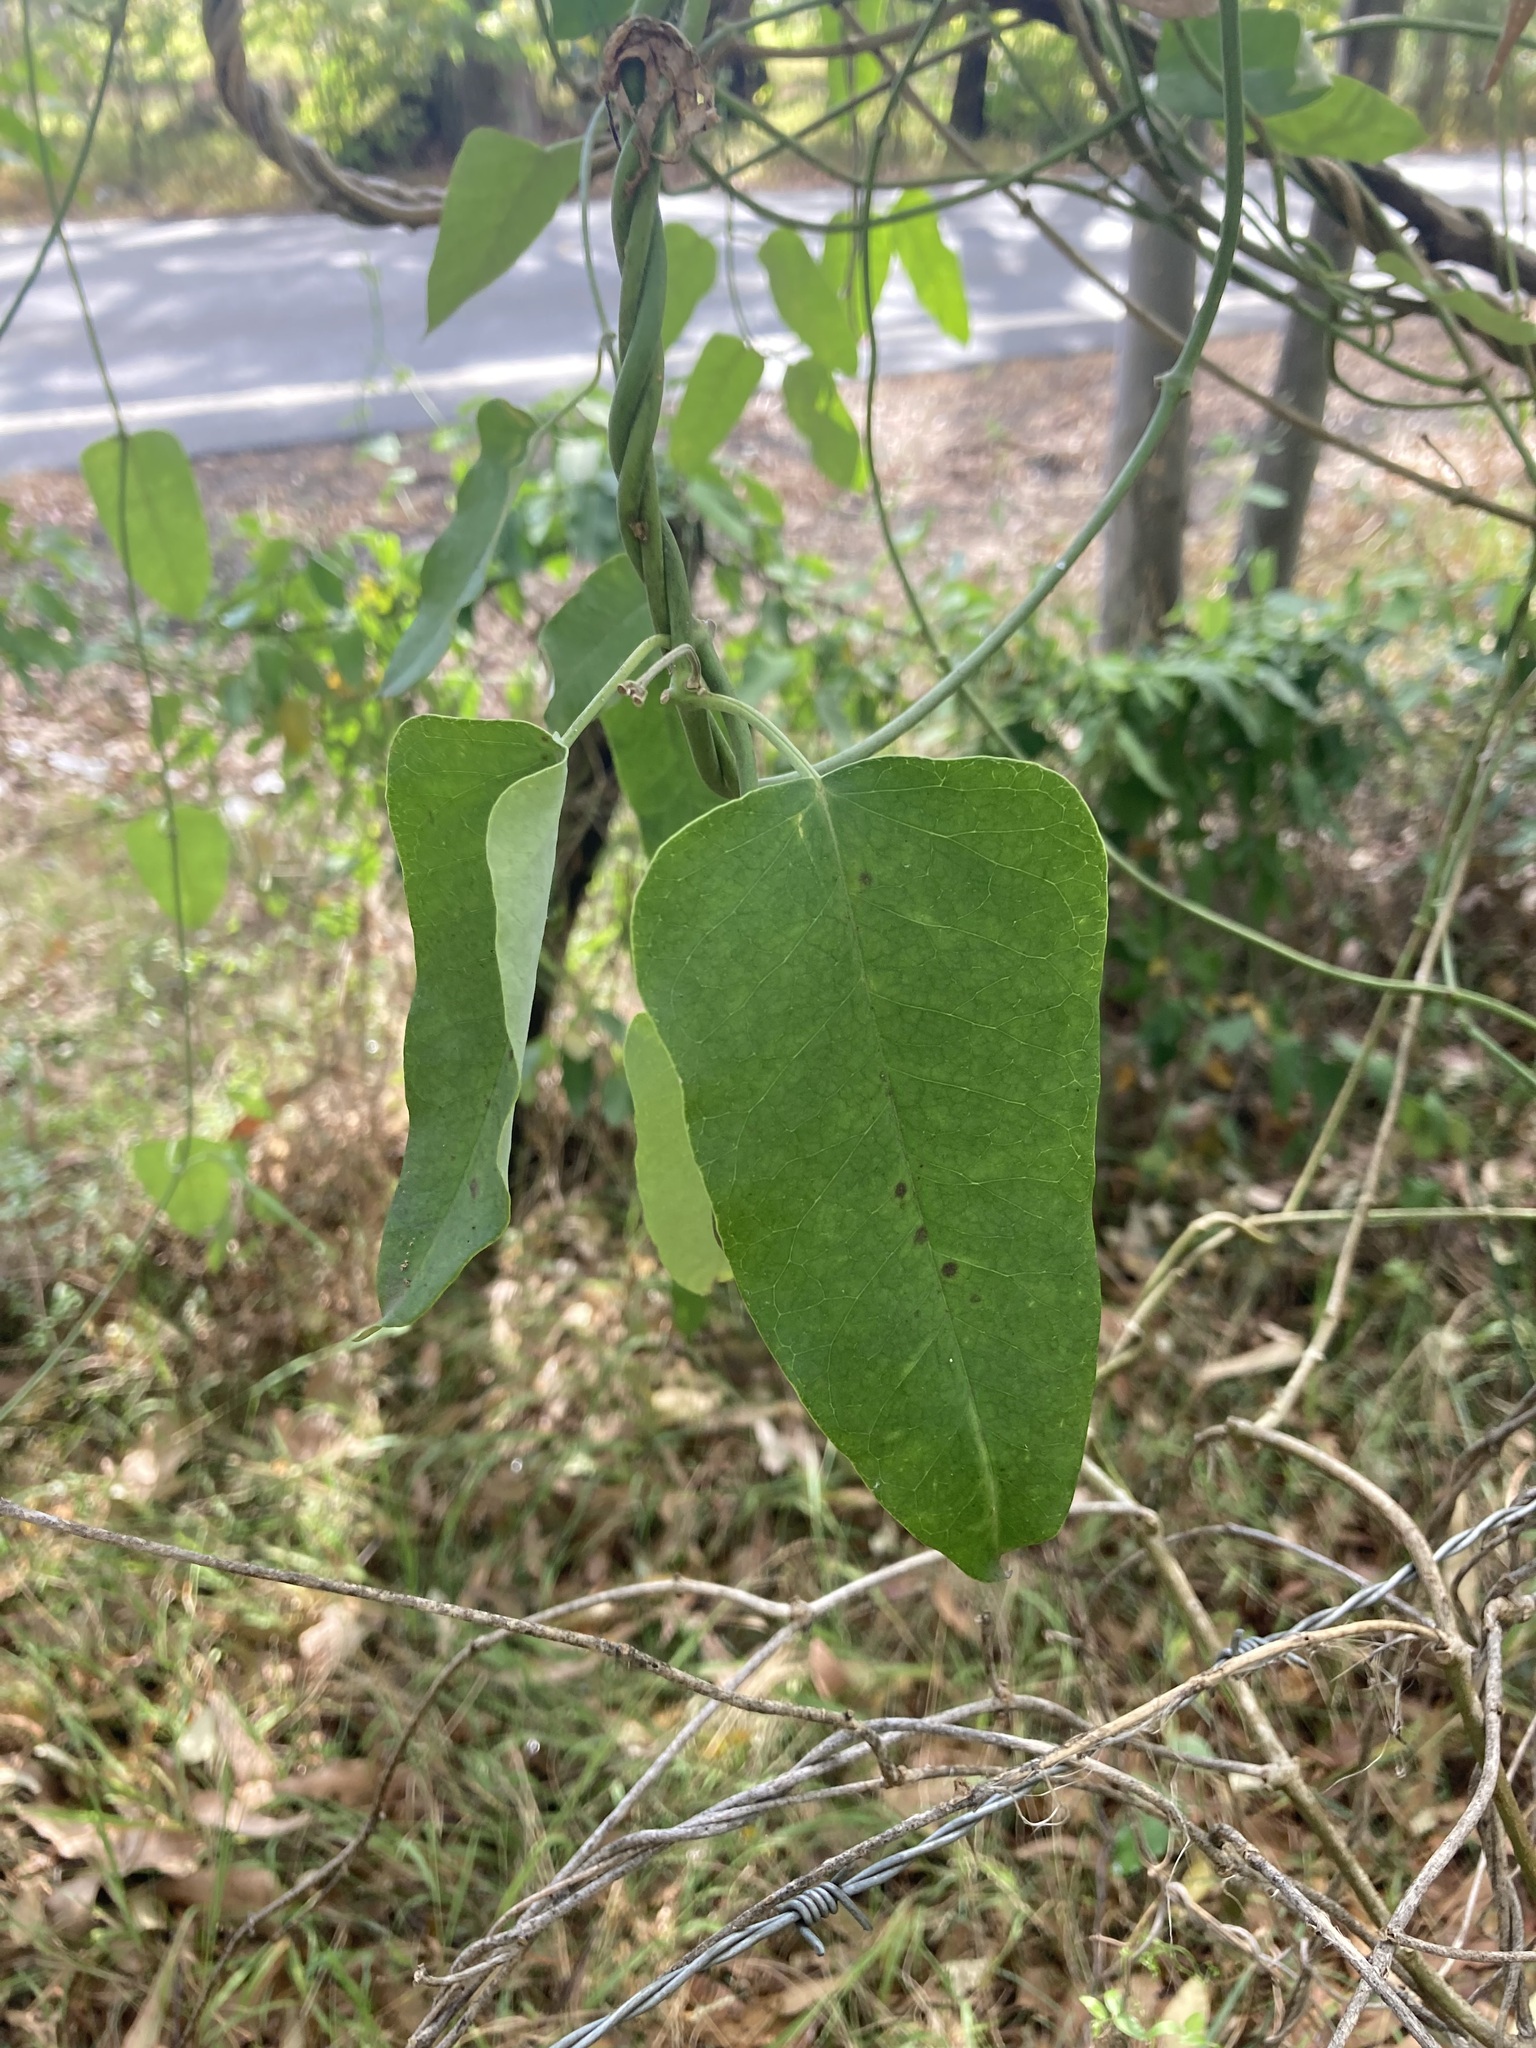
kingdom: Plantae
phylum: Tracheophyta
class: Magnoliopsida
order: Gentianales
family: Apocynaceae
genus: Araujia
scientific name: Araujia sericifera
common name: White bladderflower
